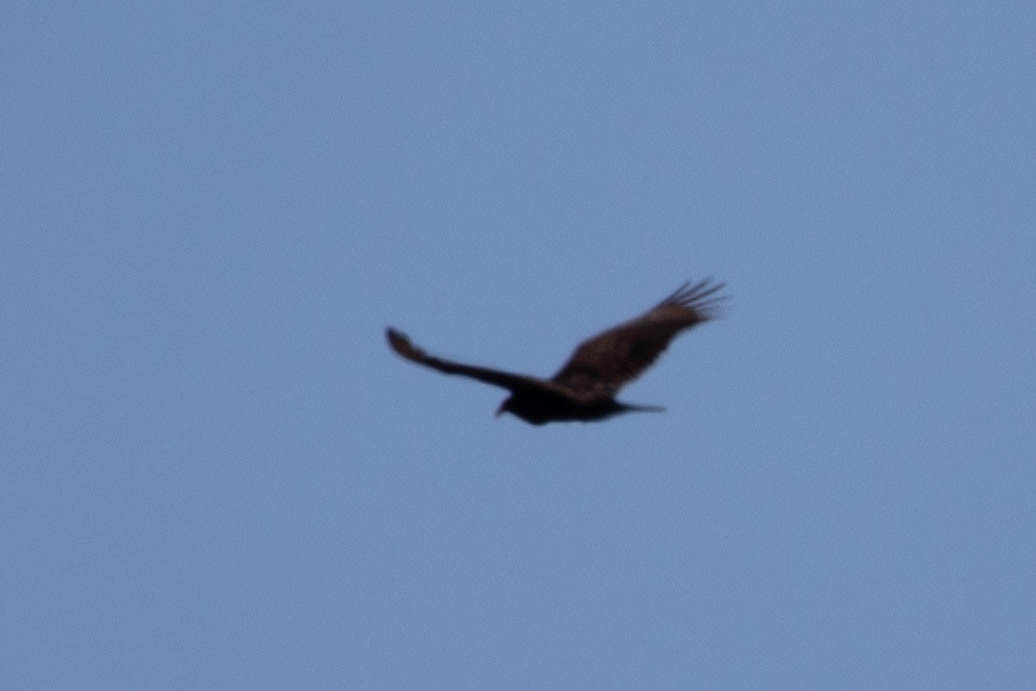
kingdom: Animalia
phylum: Chordata
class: Aves
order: Accipitriformes
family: Cathartidae
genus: Cathartes
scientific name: Cathartes aura
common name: Turkey vulture
